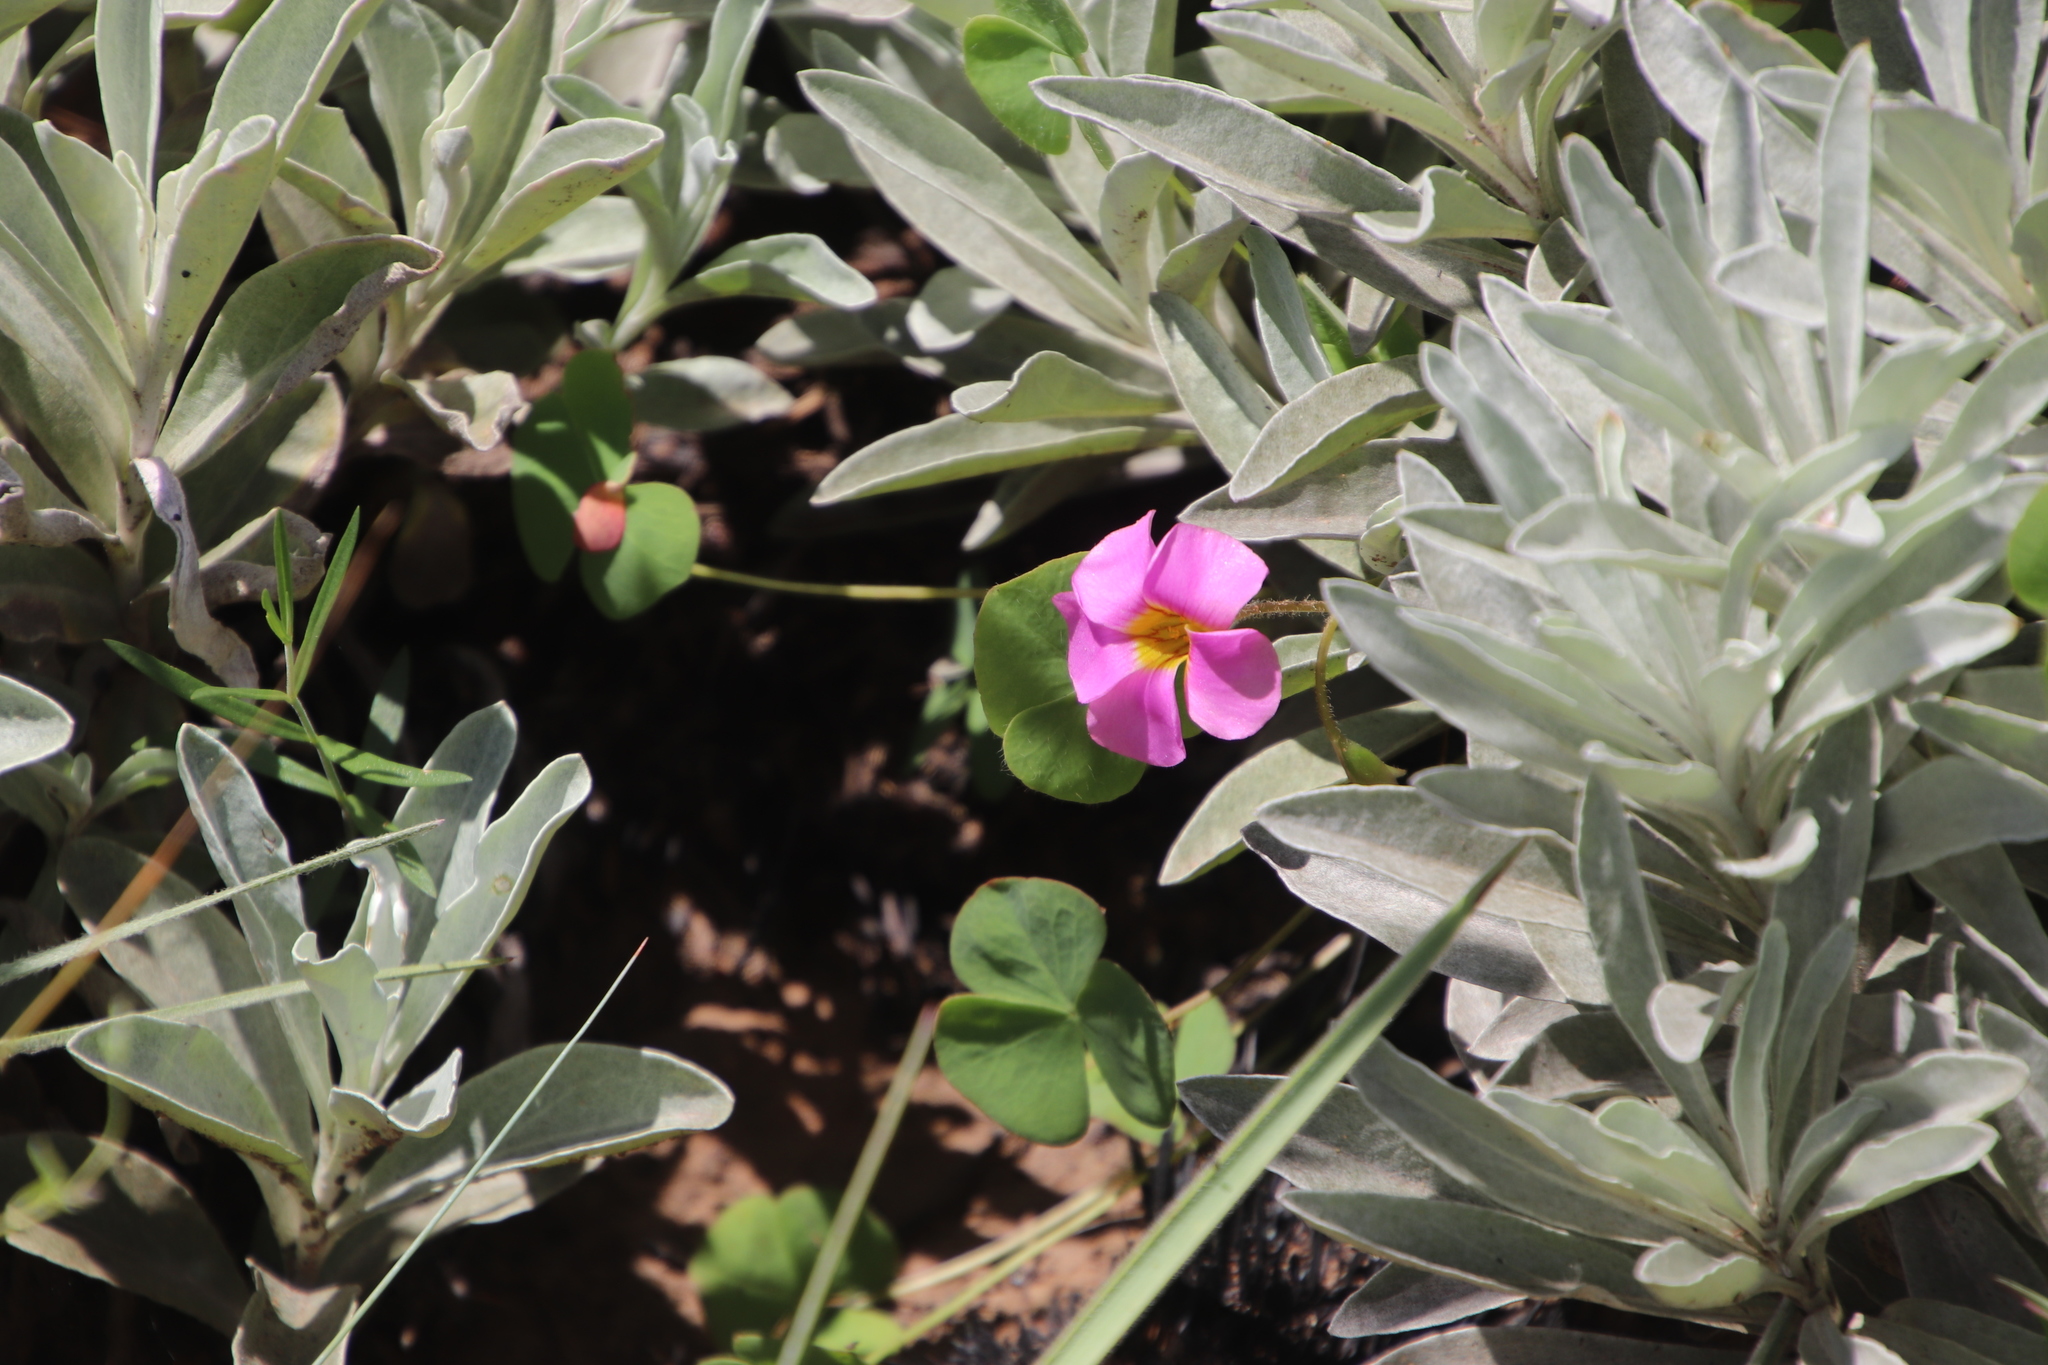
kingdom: Plantae
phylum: Tracheophyta
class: Magnoliopsida
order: Oxalidales
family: Oxalidaceae
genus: Oxalis
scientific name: Oxalis obliquifolia
